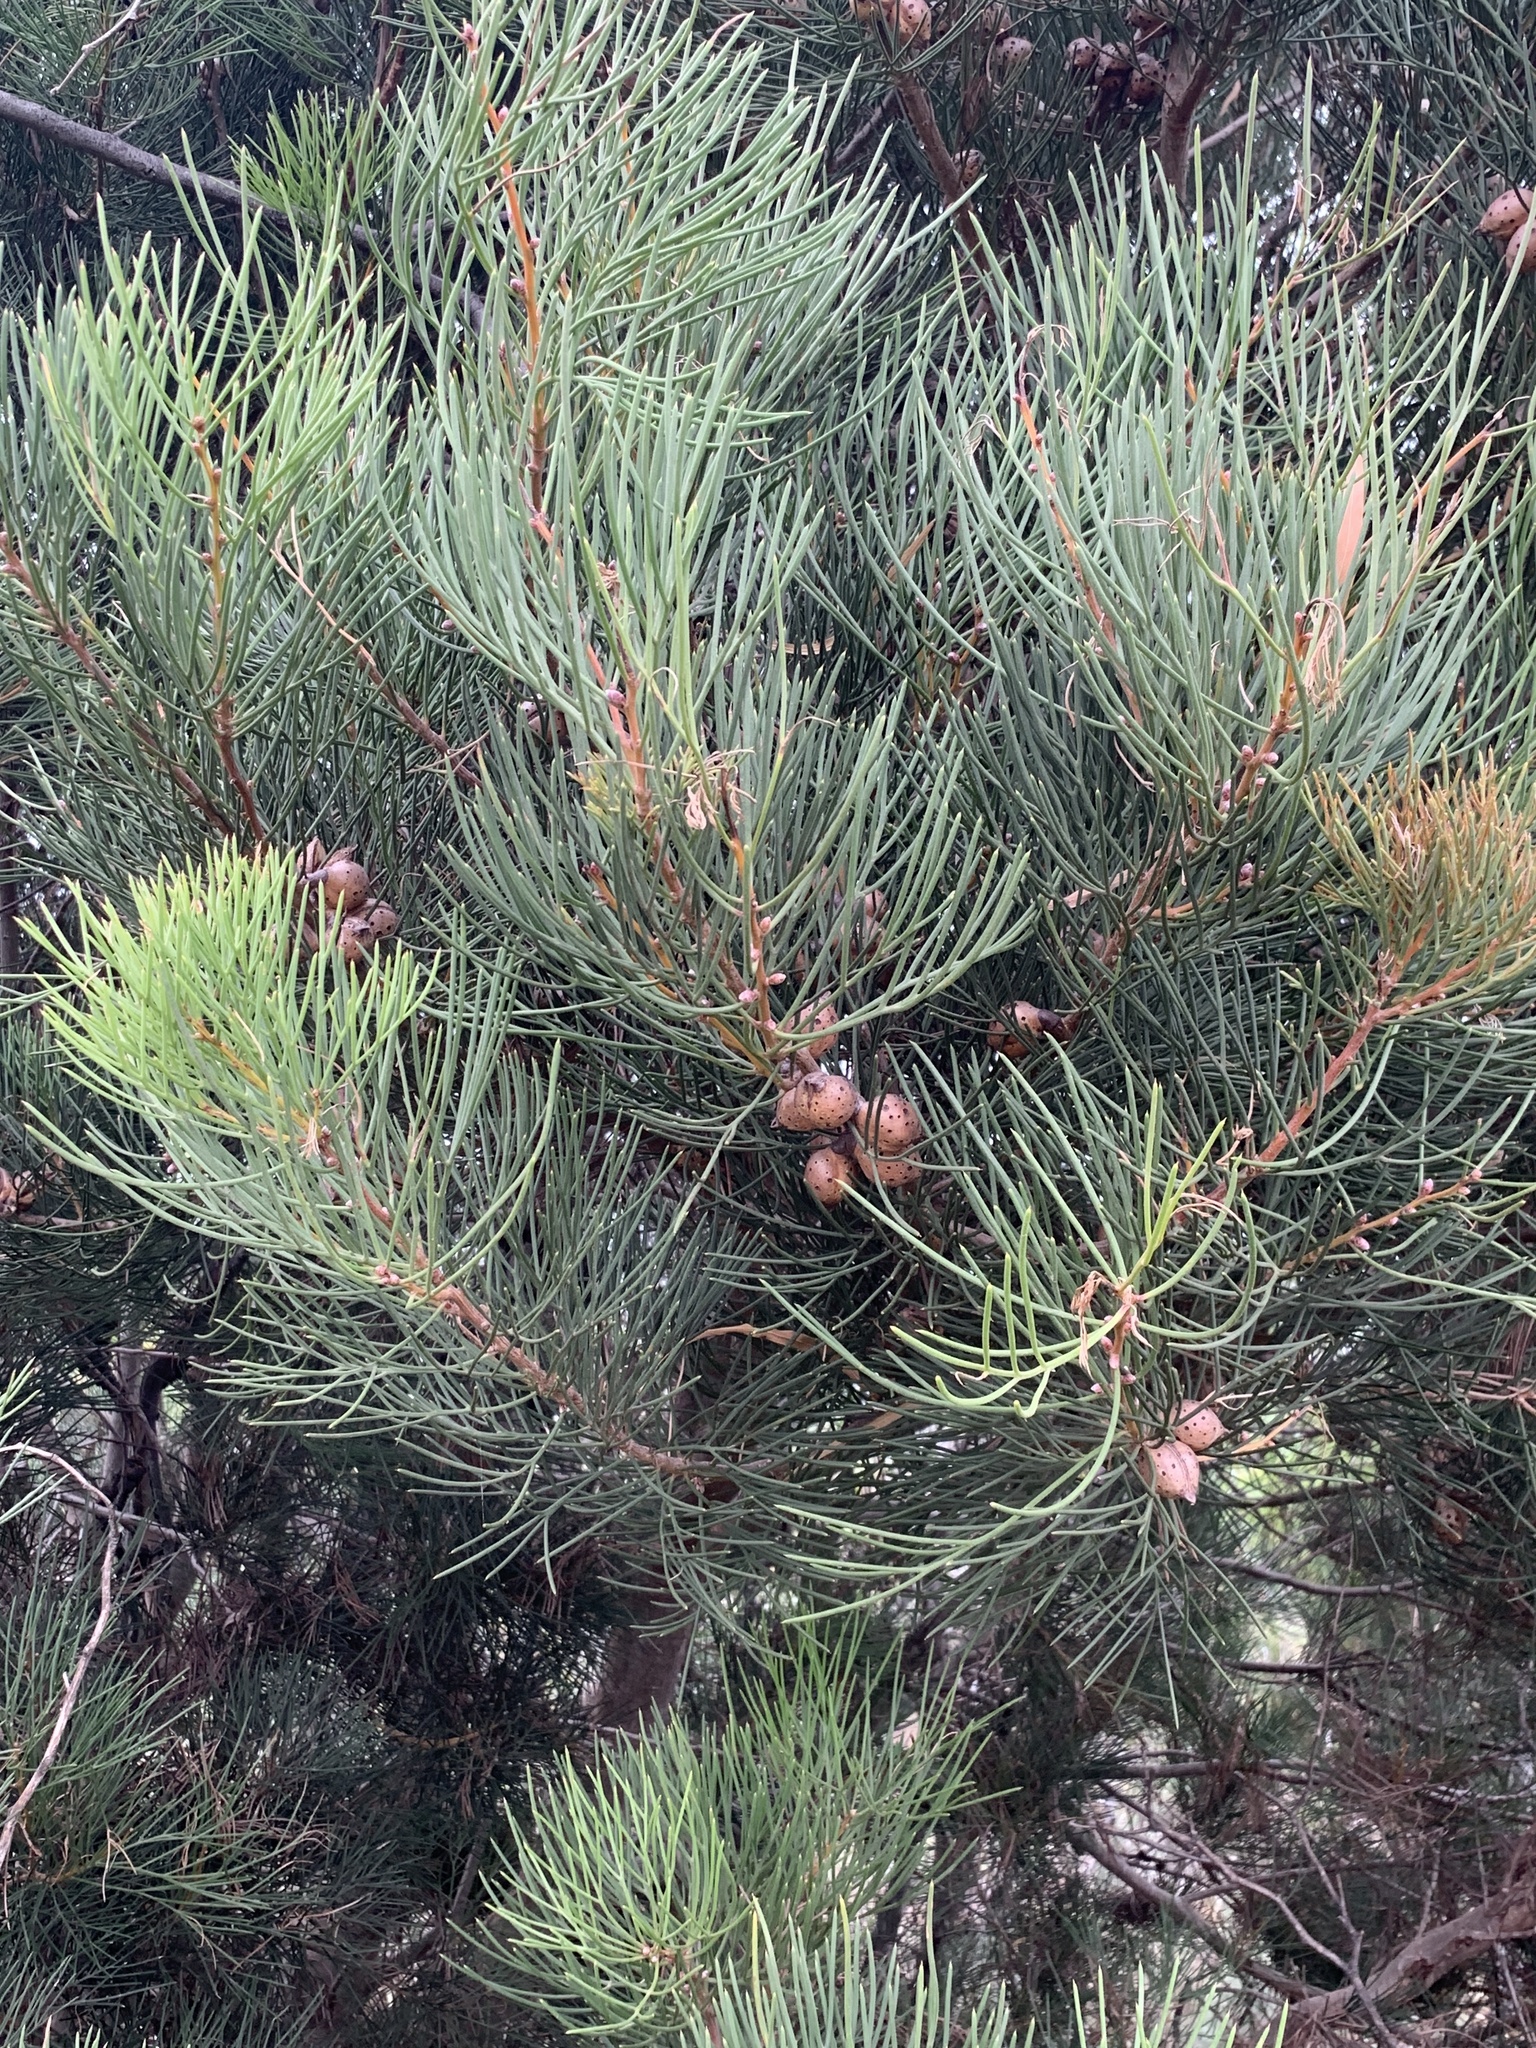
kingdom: Plantae
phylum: Tracheophyta
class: Magnoliopsida
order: Proteales
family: Proteaceae
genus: Hakea
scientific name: Hakea drupacea
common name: Sweet hakea
